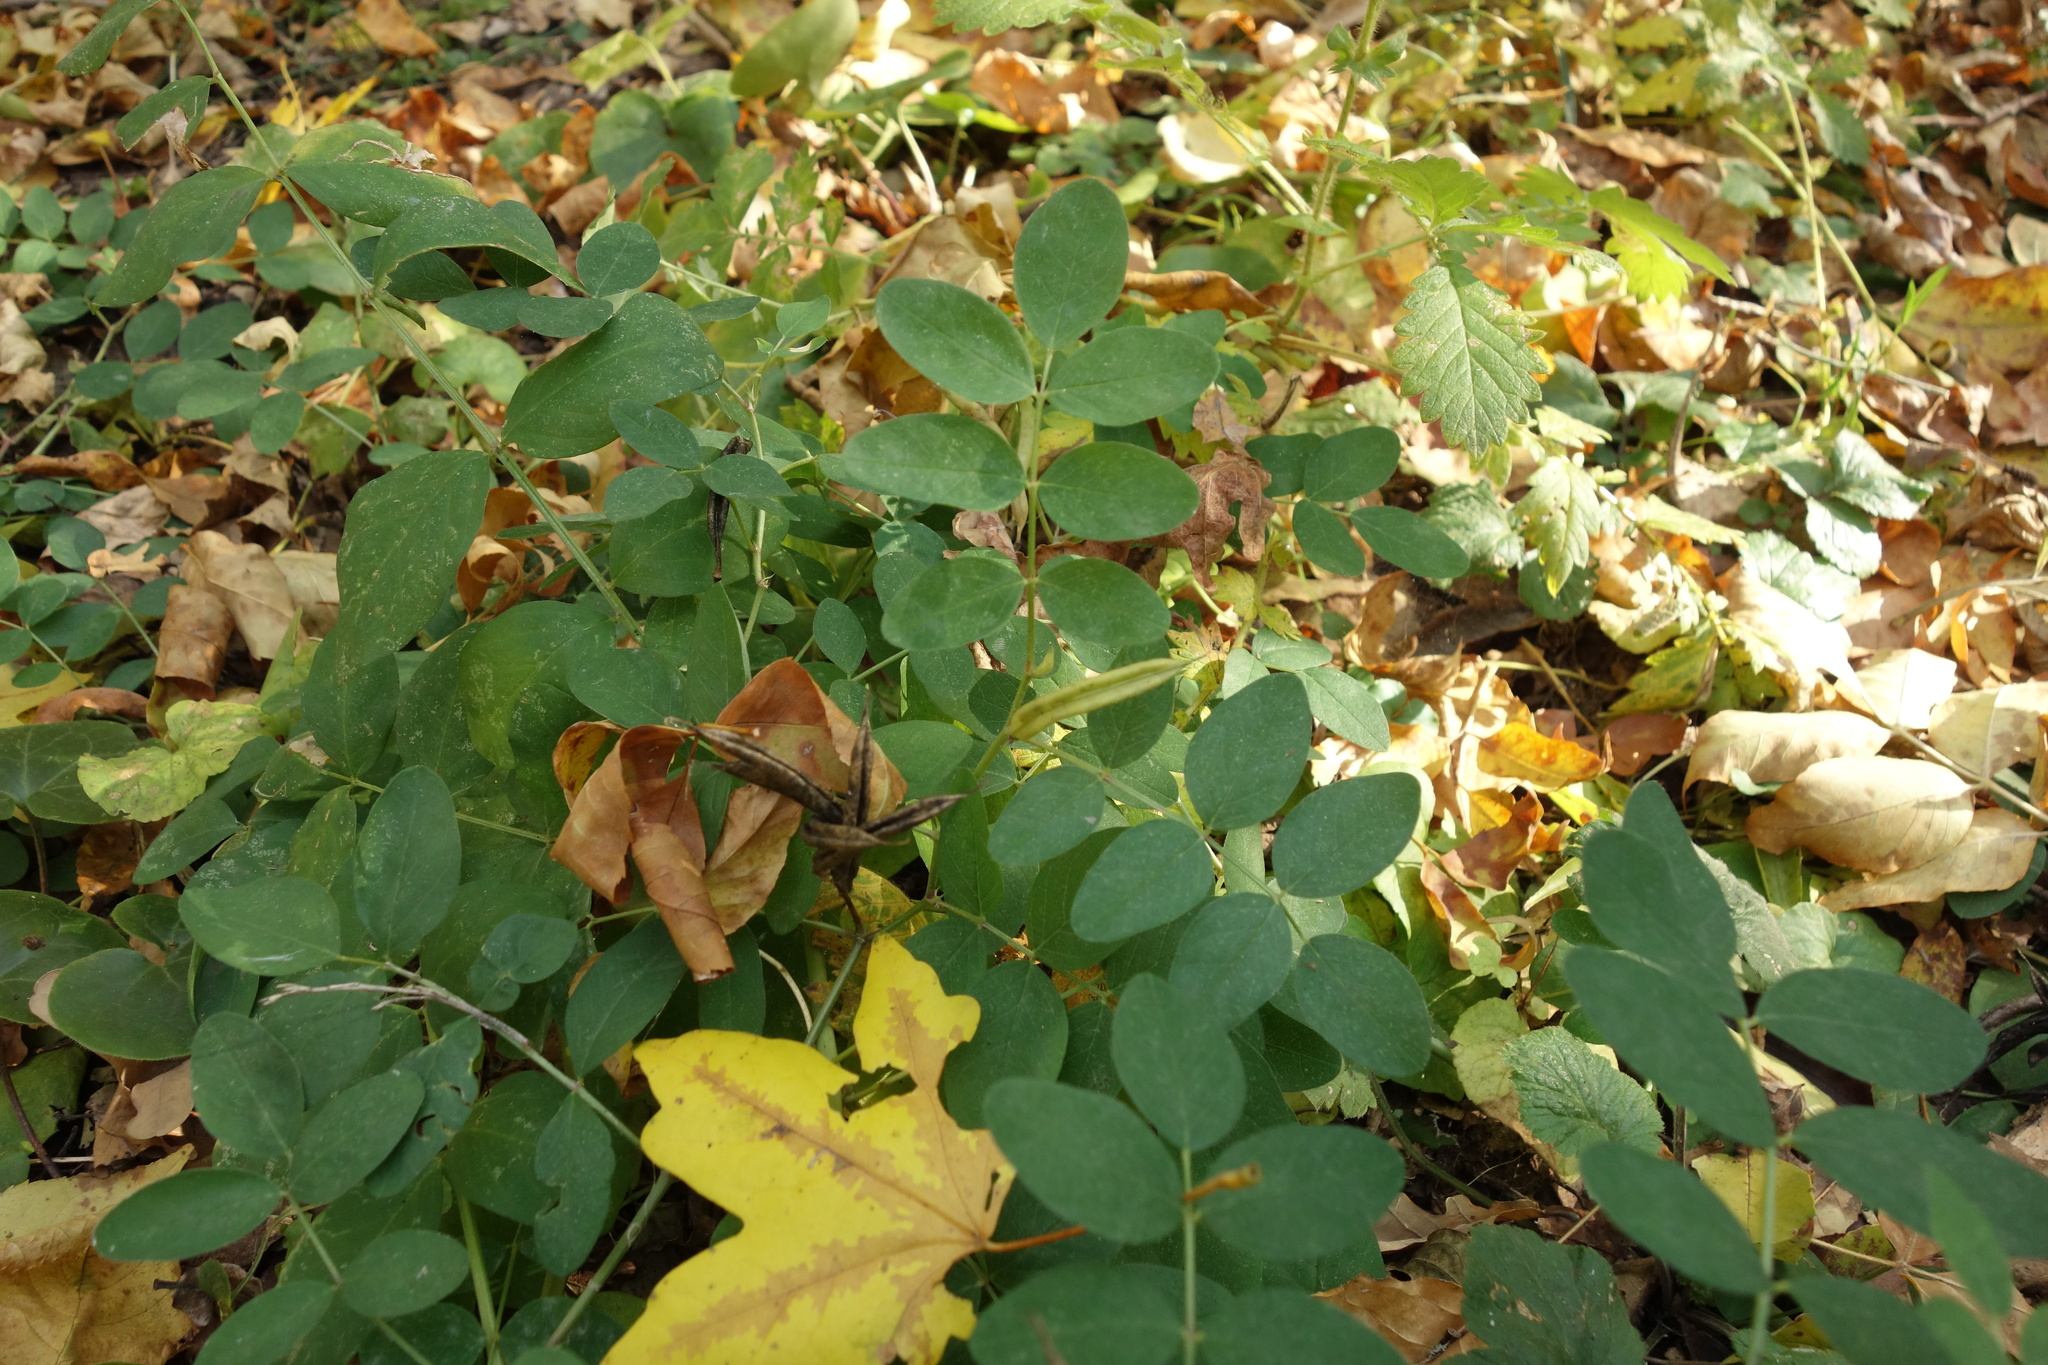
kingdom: Plantae
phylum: Tracheophyta
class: Magnoliopsida
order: Fabales
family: Fabaceae
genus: Astragalus
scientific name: Astragalus glycyphyllos
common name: Wild liquorice
